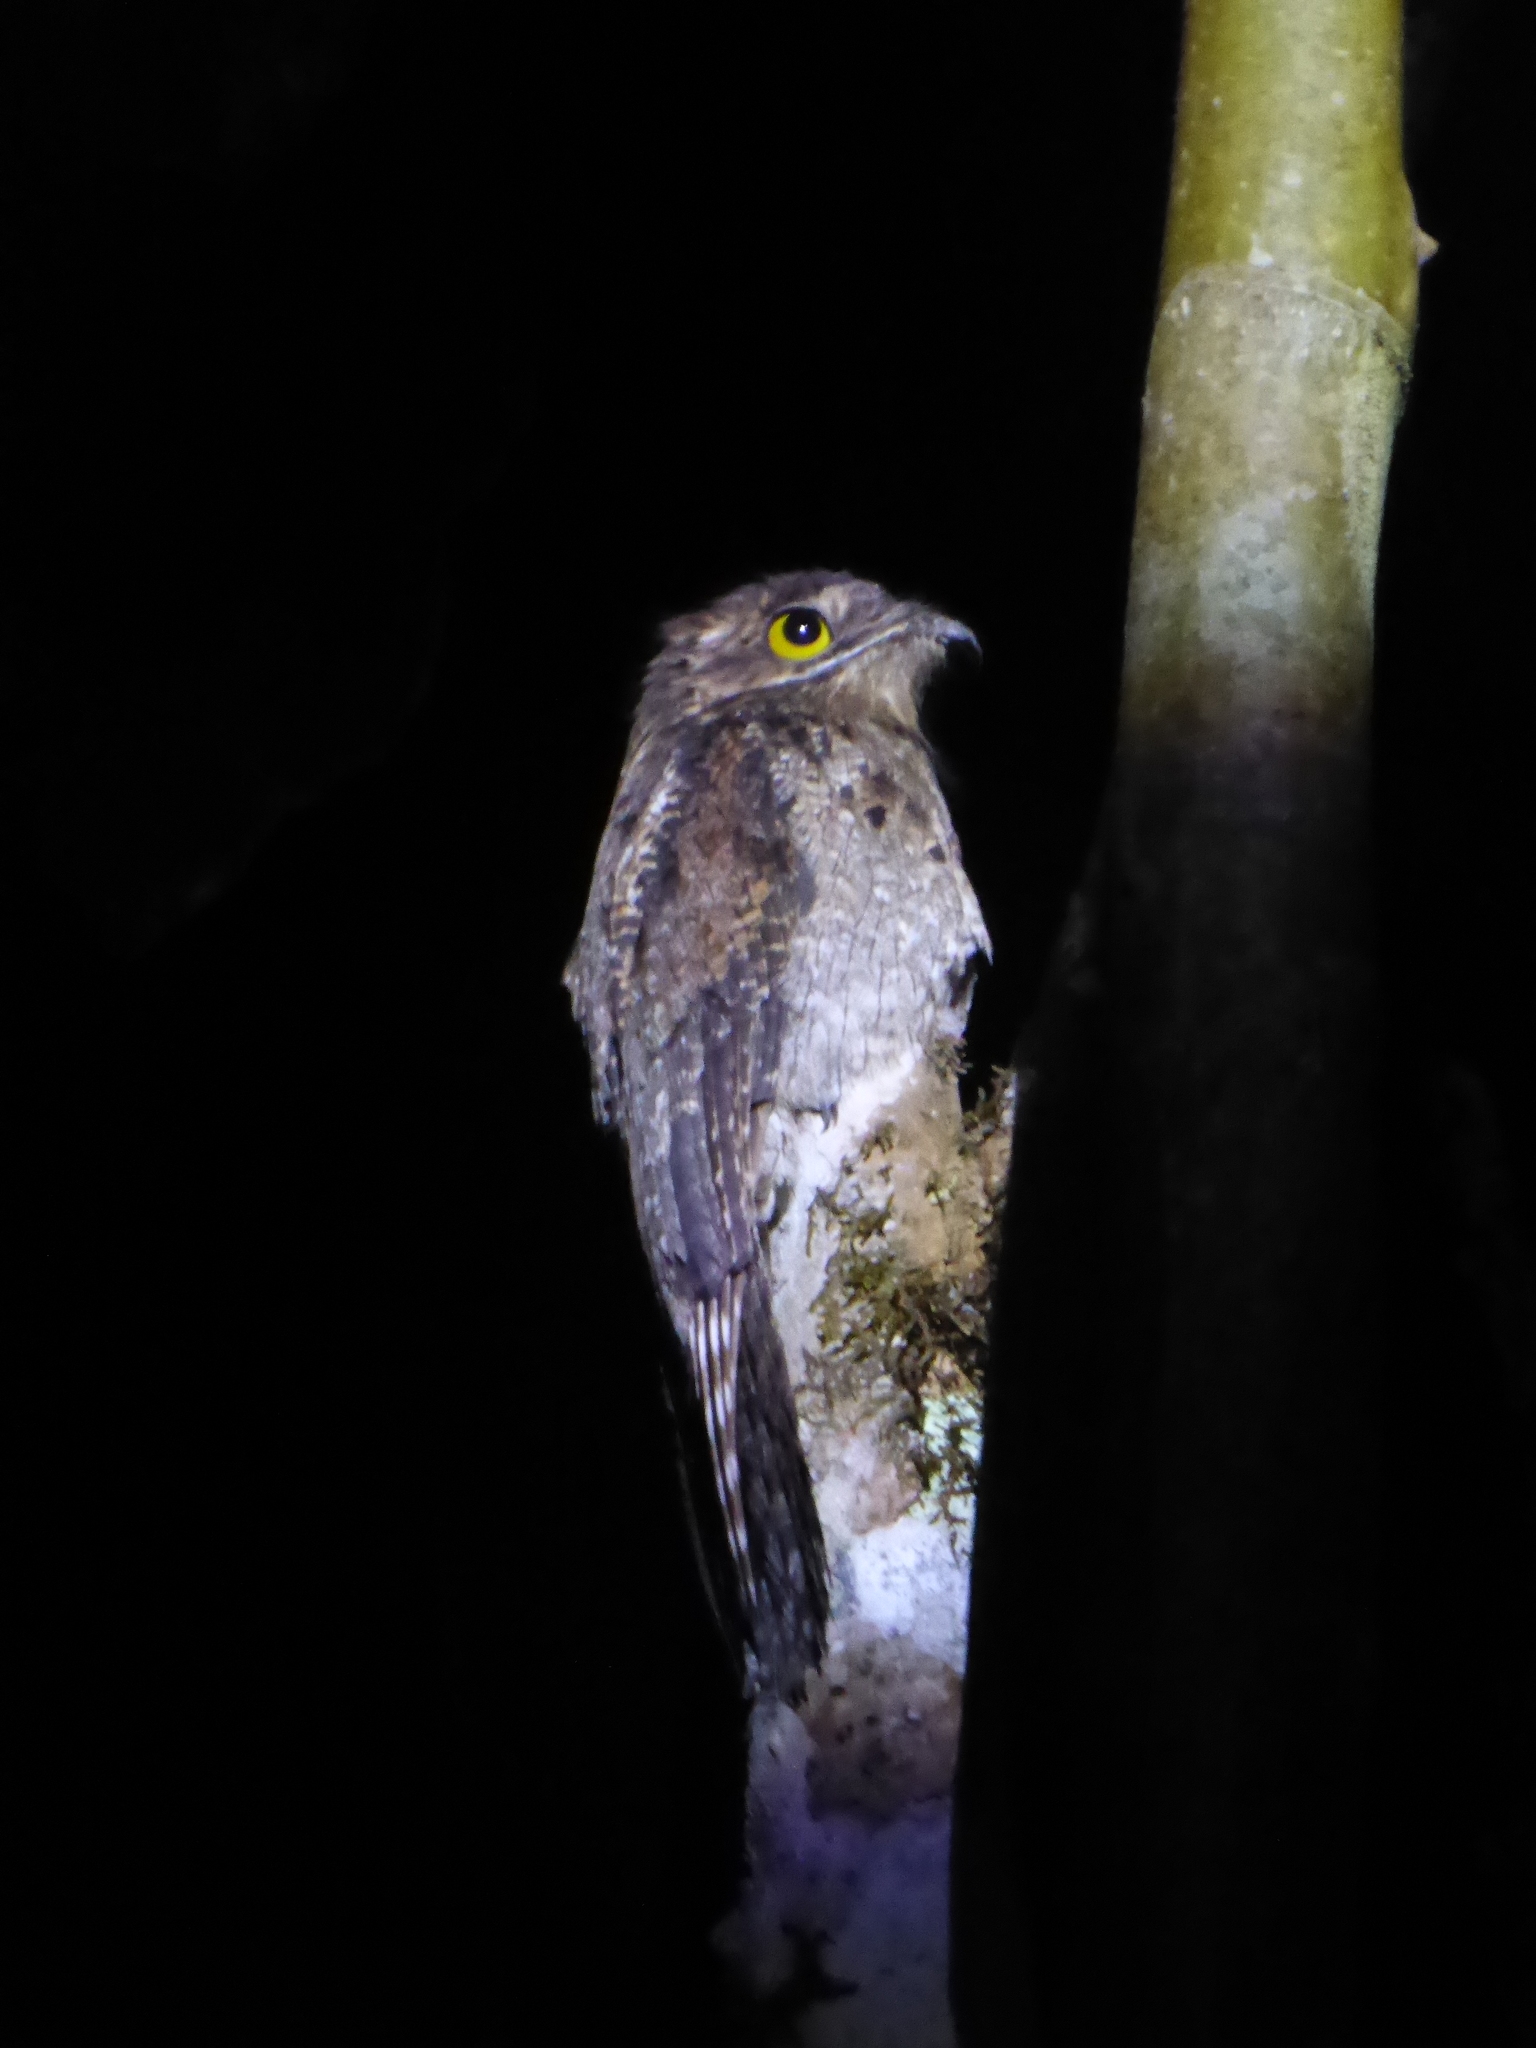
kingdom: Animalia
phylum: Chordata
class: Aves
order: Nyctibiiformes
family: Nyctibiidae
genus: Nyctibius
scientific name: Nyctibius griseus
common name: Common potoo
